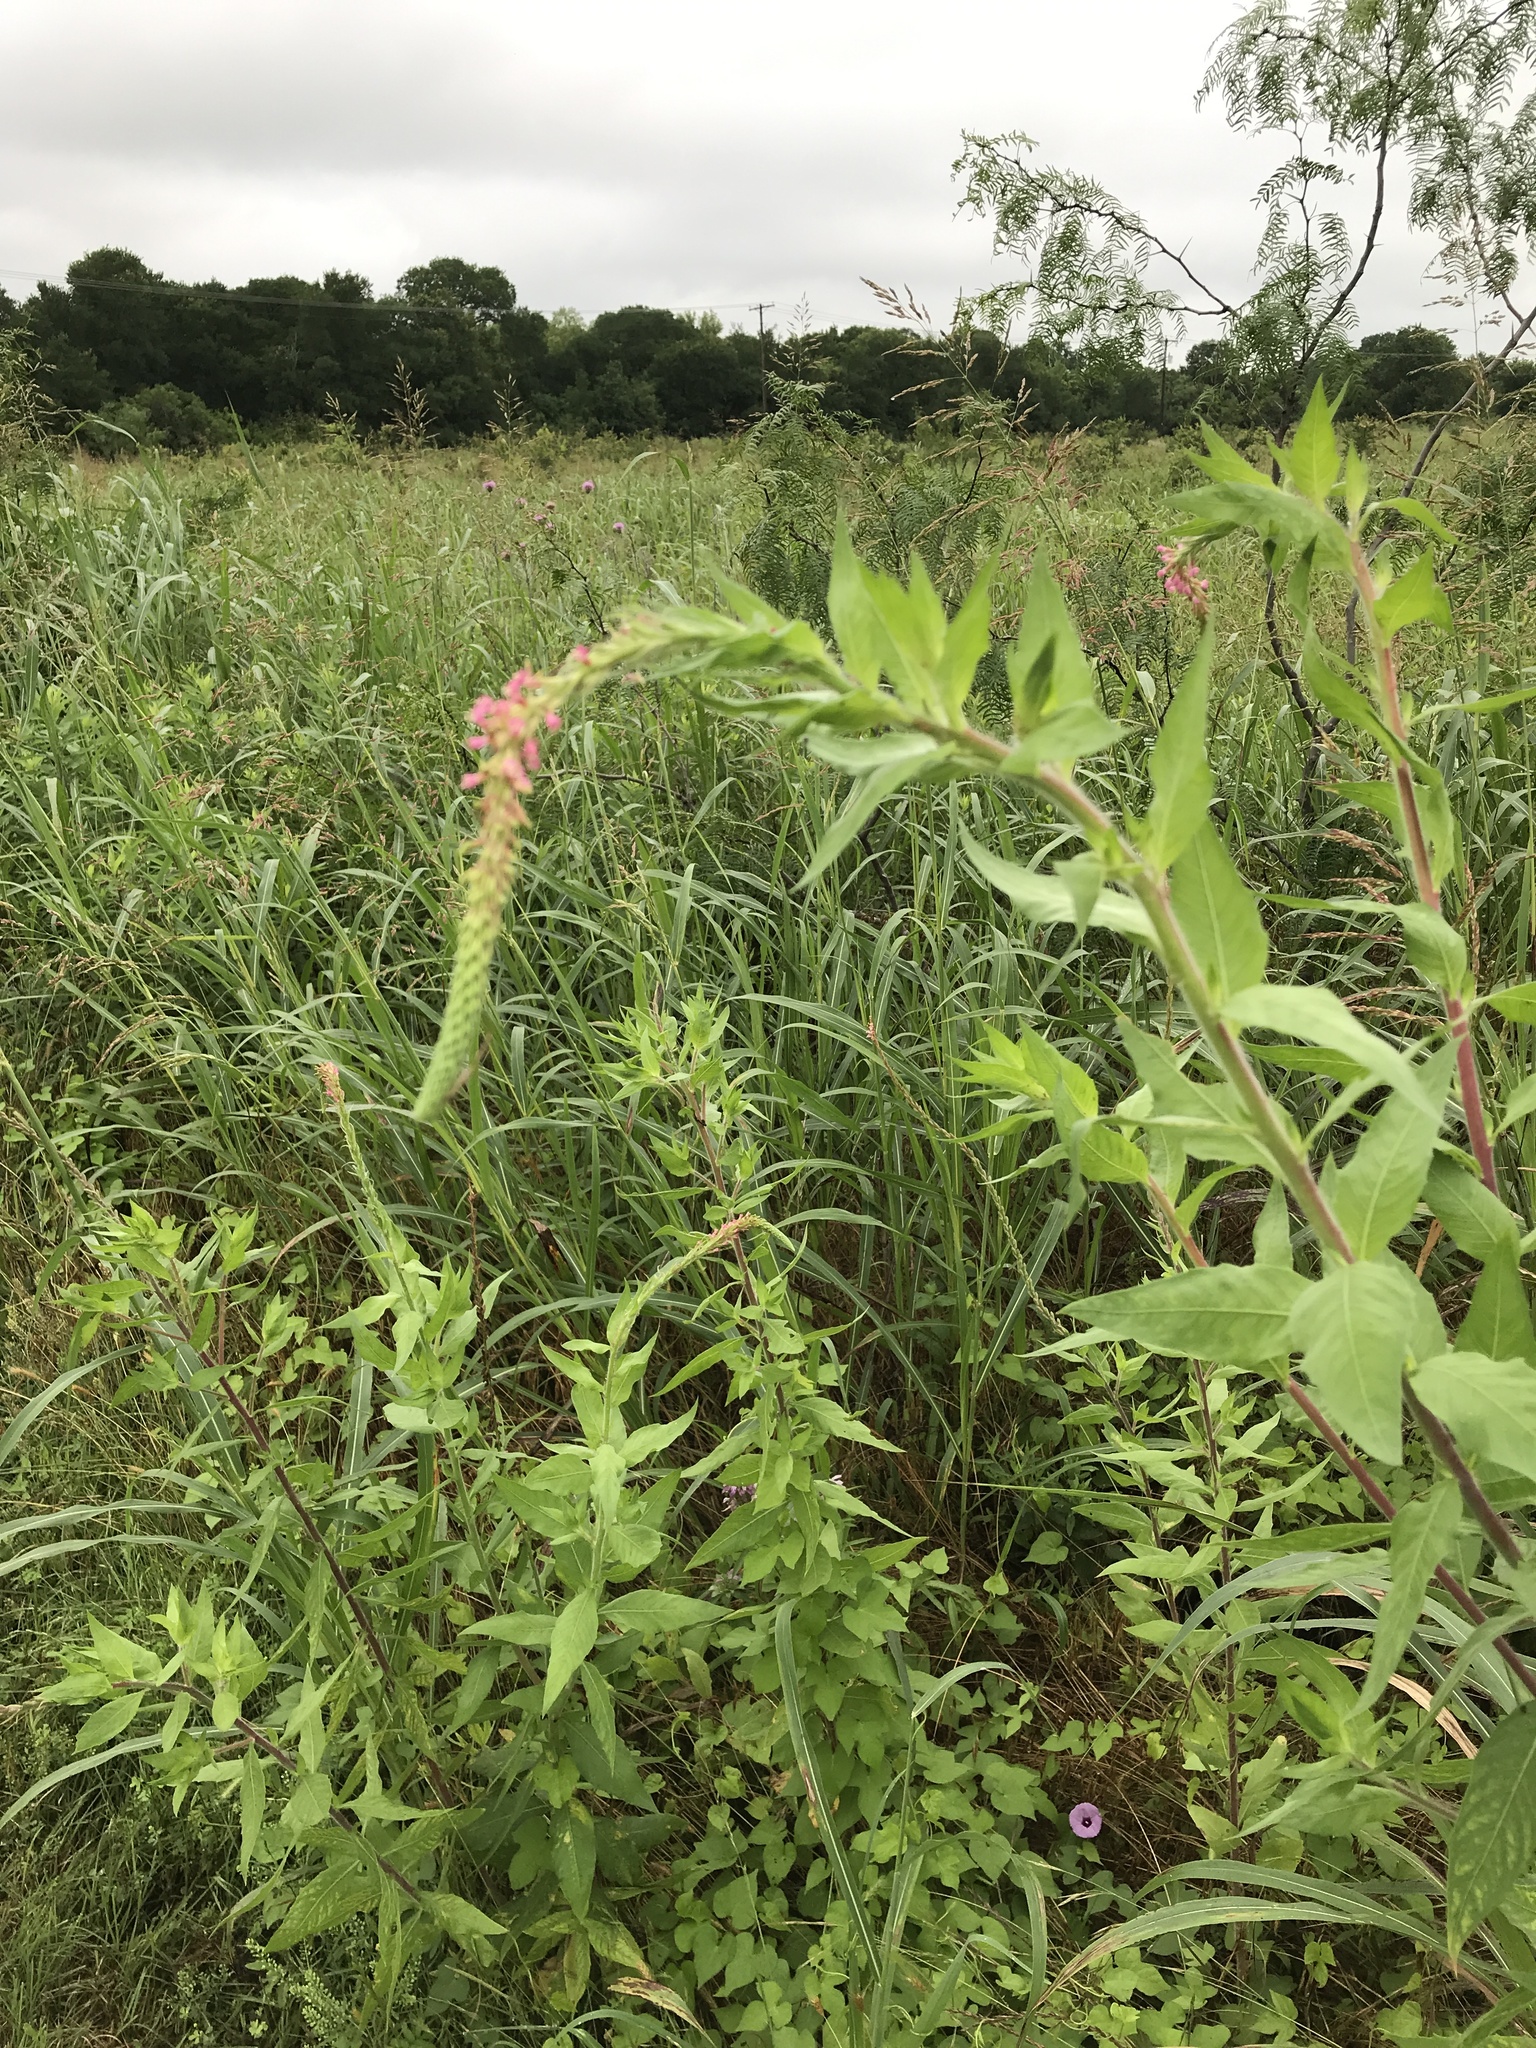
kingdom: Plantae
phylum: Tracheophyta
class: Magnoliopsida
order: Myrtales
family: Onagraceae
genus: Oenothera
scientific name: Oenothera curtiflora
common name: Velvetweed
